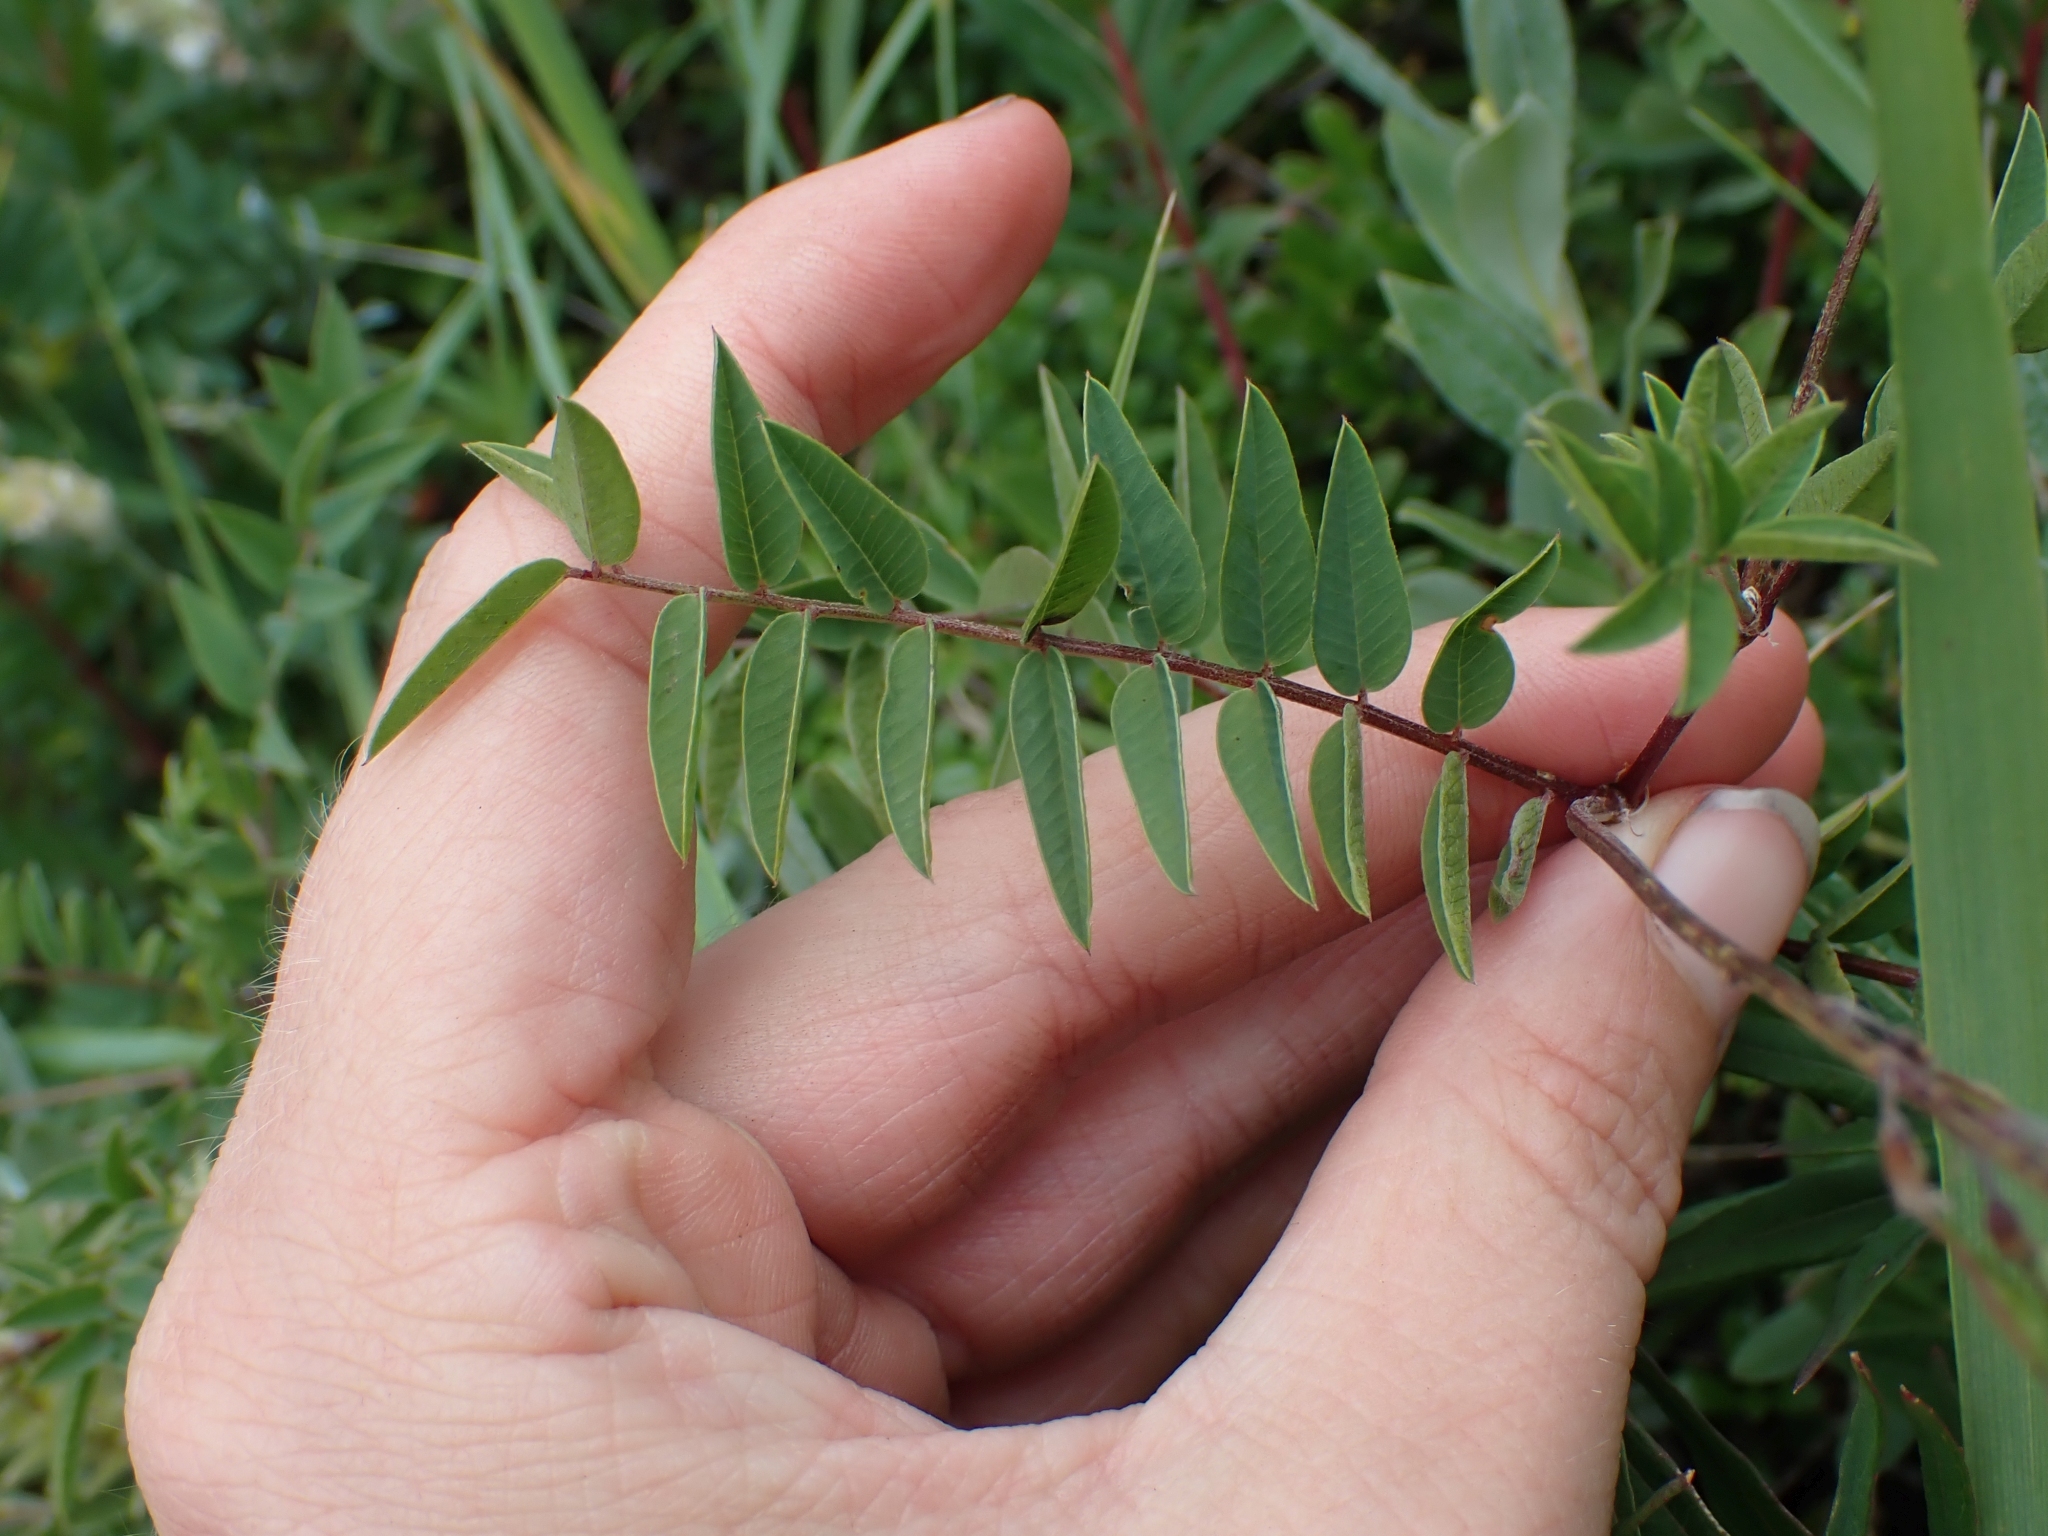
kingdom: Plantae
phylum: Tracheophyta
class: Magnoliopsida
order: Fabales
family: Fabaceae
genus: Hedysarum
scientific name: Hedysarum alpinum
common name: Alpine sweet-vetch
